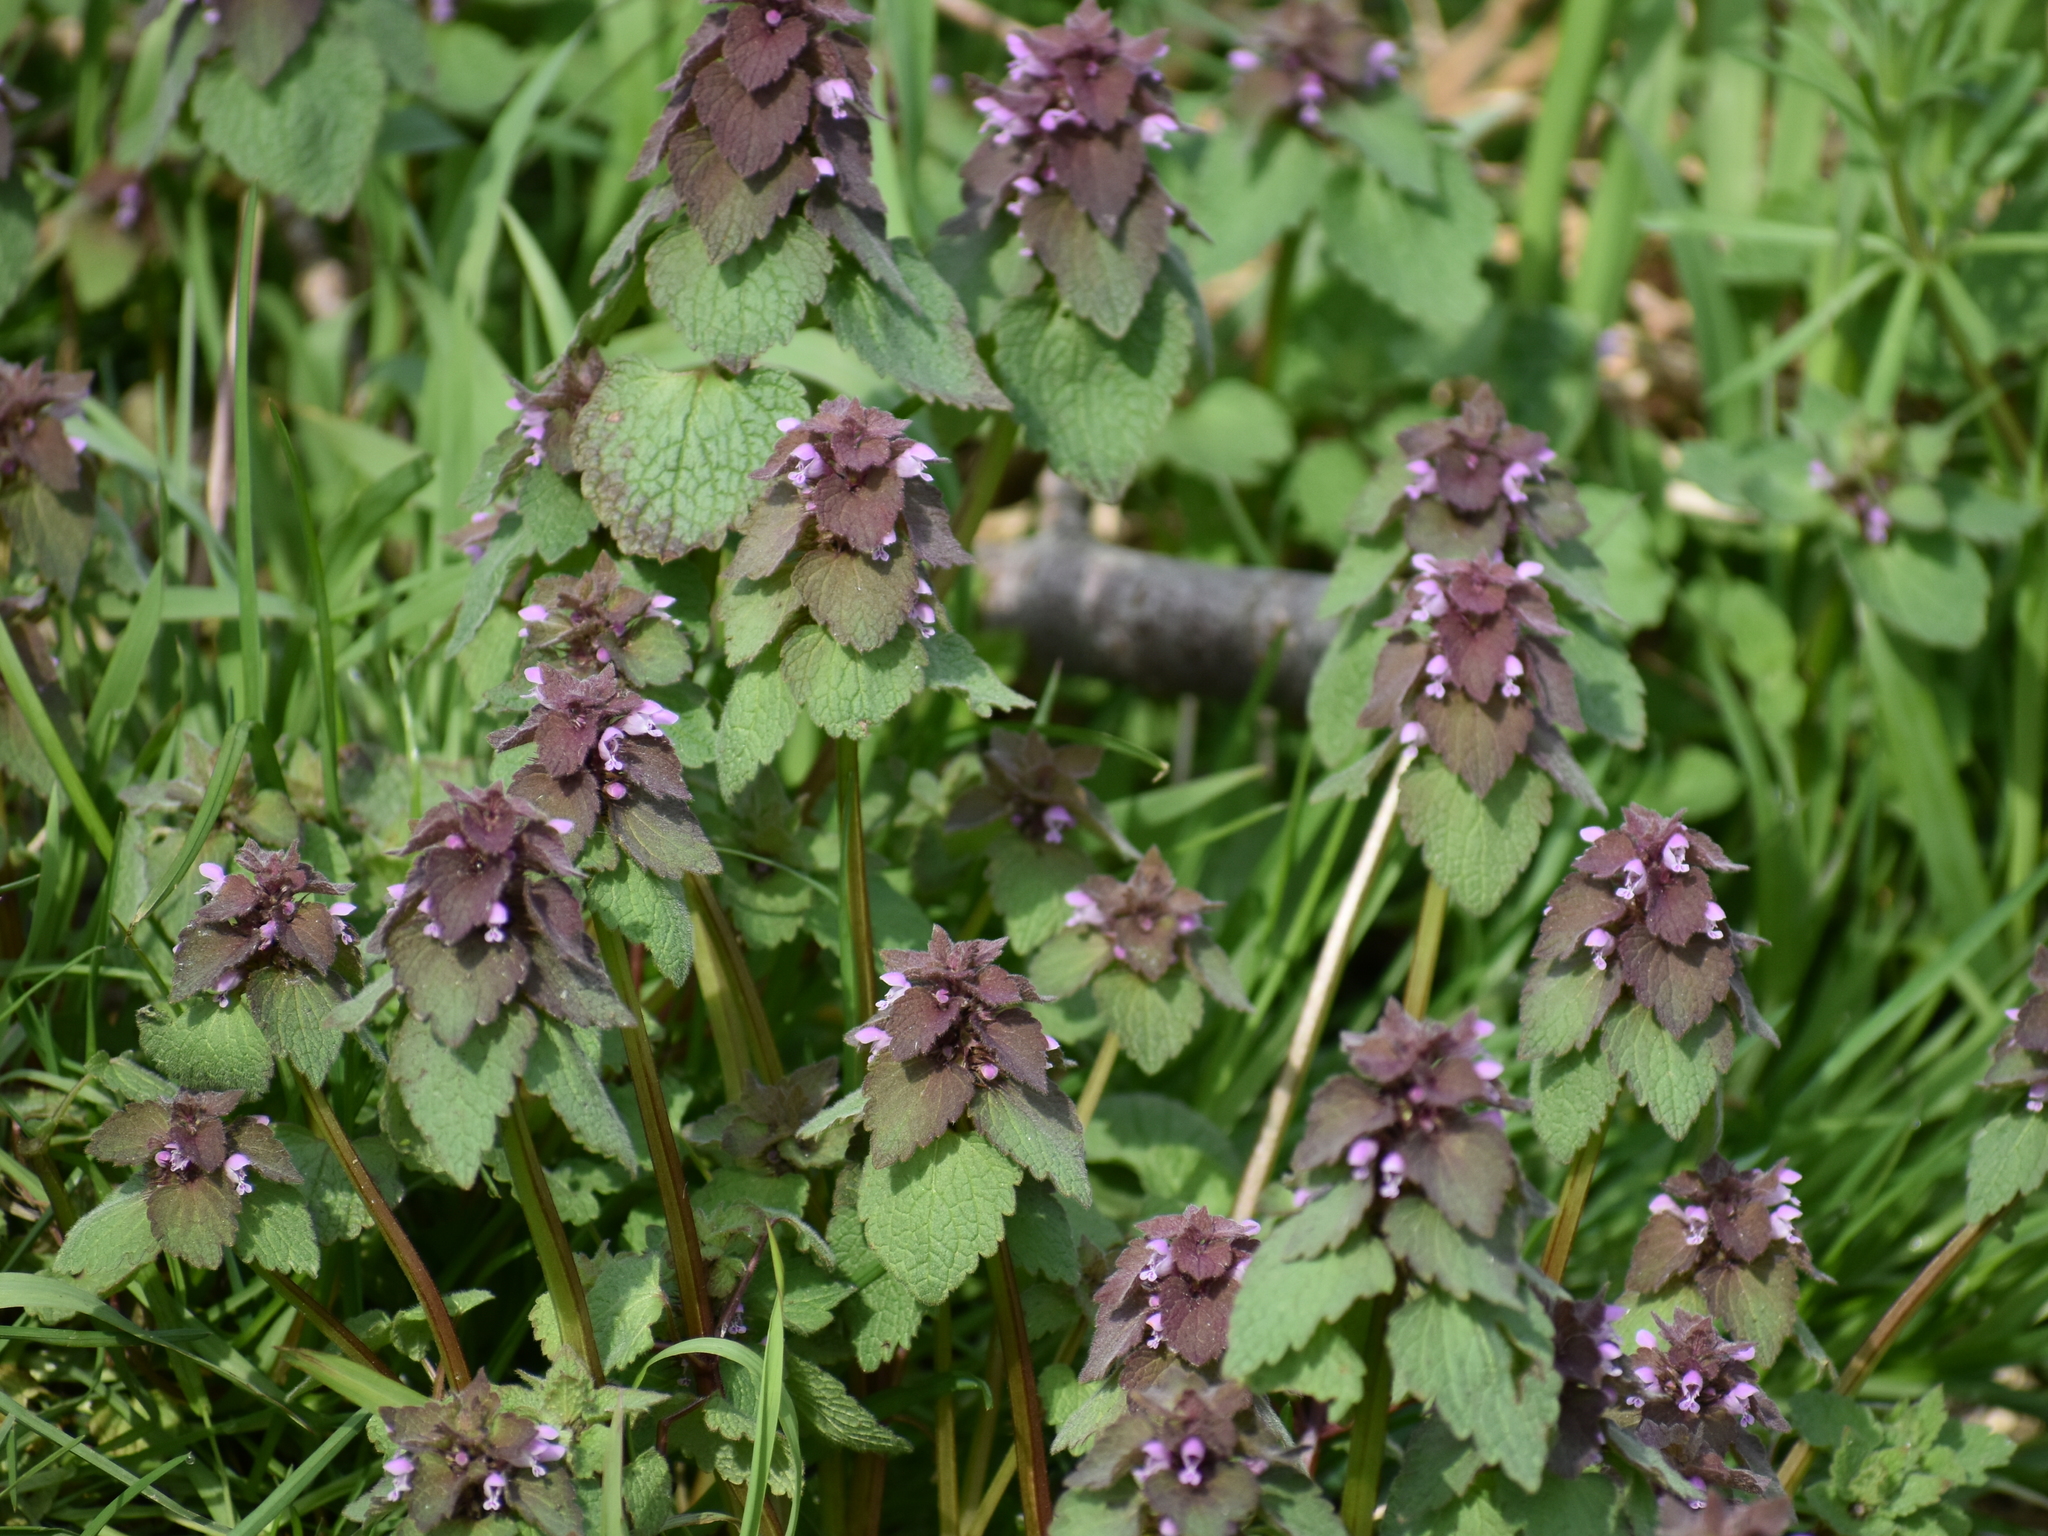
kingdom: Plantae
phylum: Tracheophyta
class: Magnoliopsida
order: Lamiales
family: Lamiaceae
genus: Lamium
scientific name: Lamium purpureum
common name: Red dead-nettle
